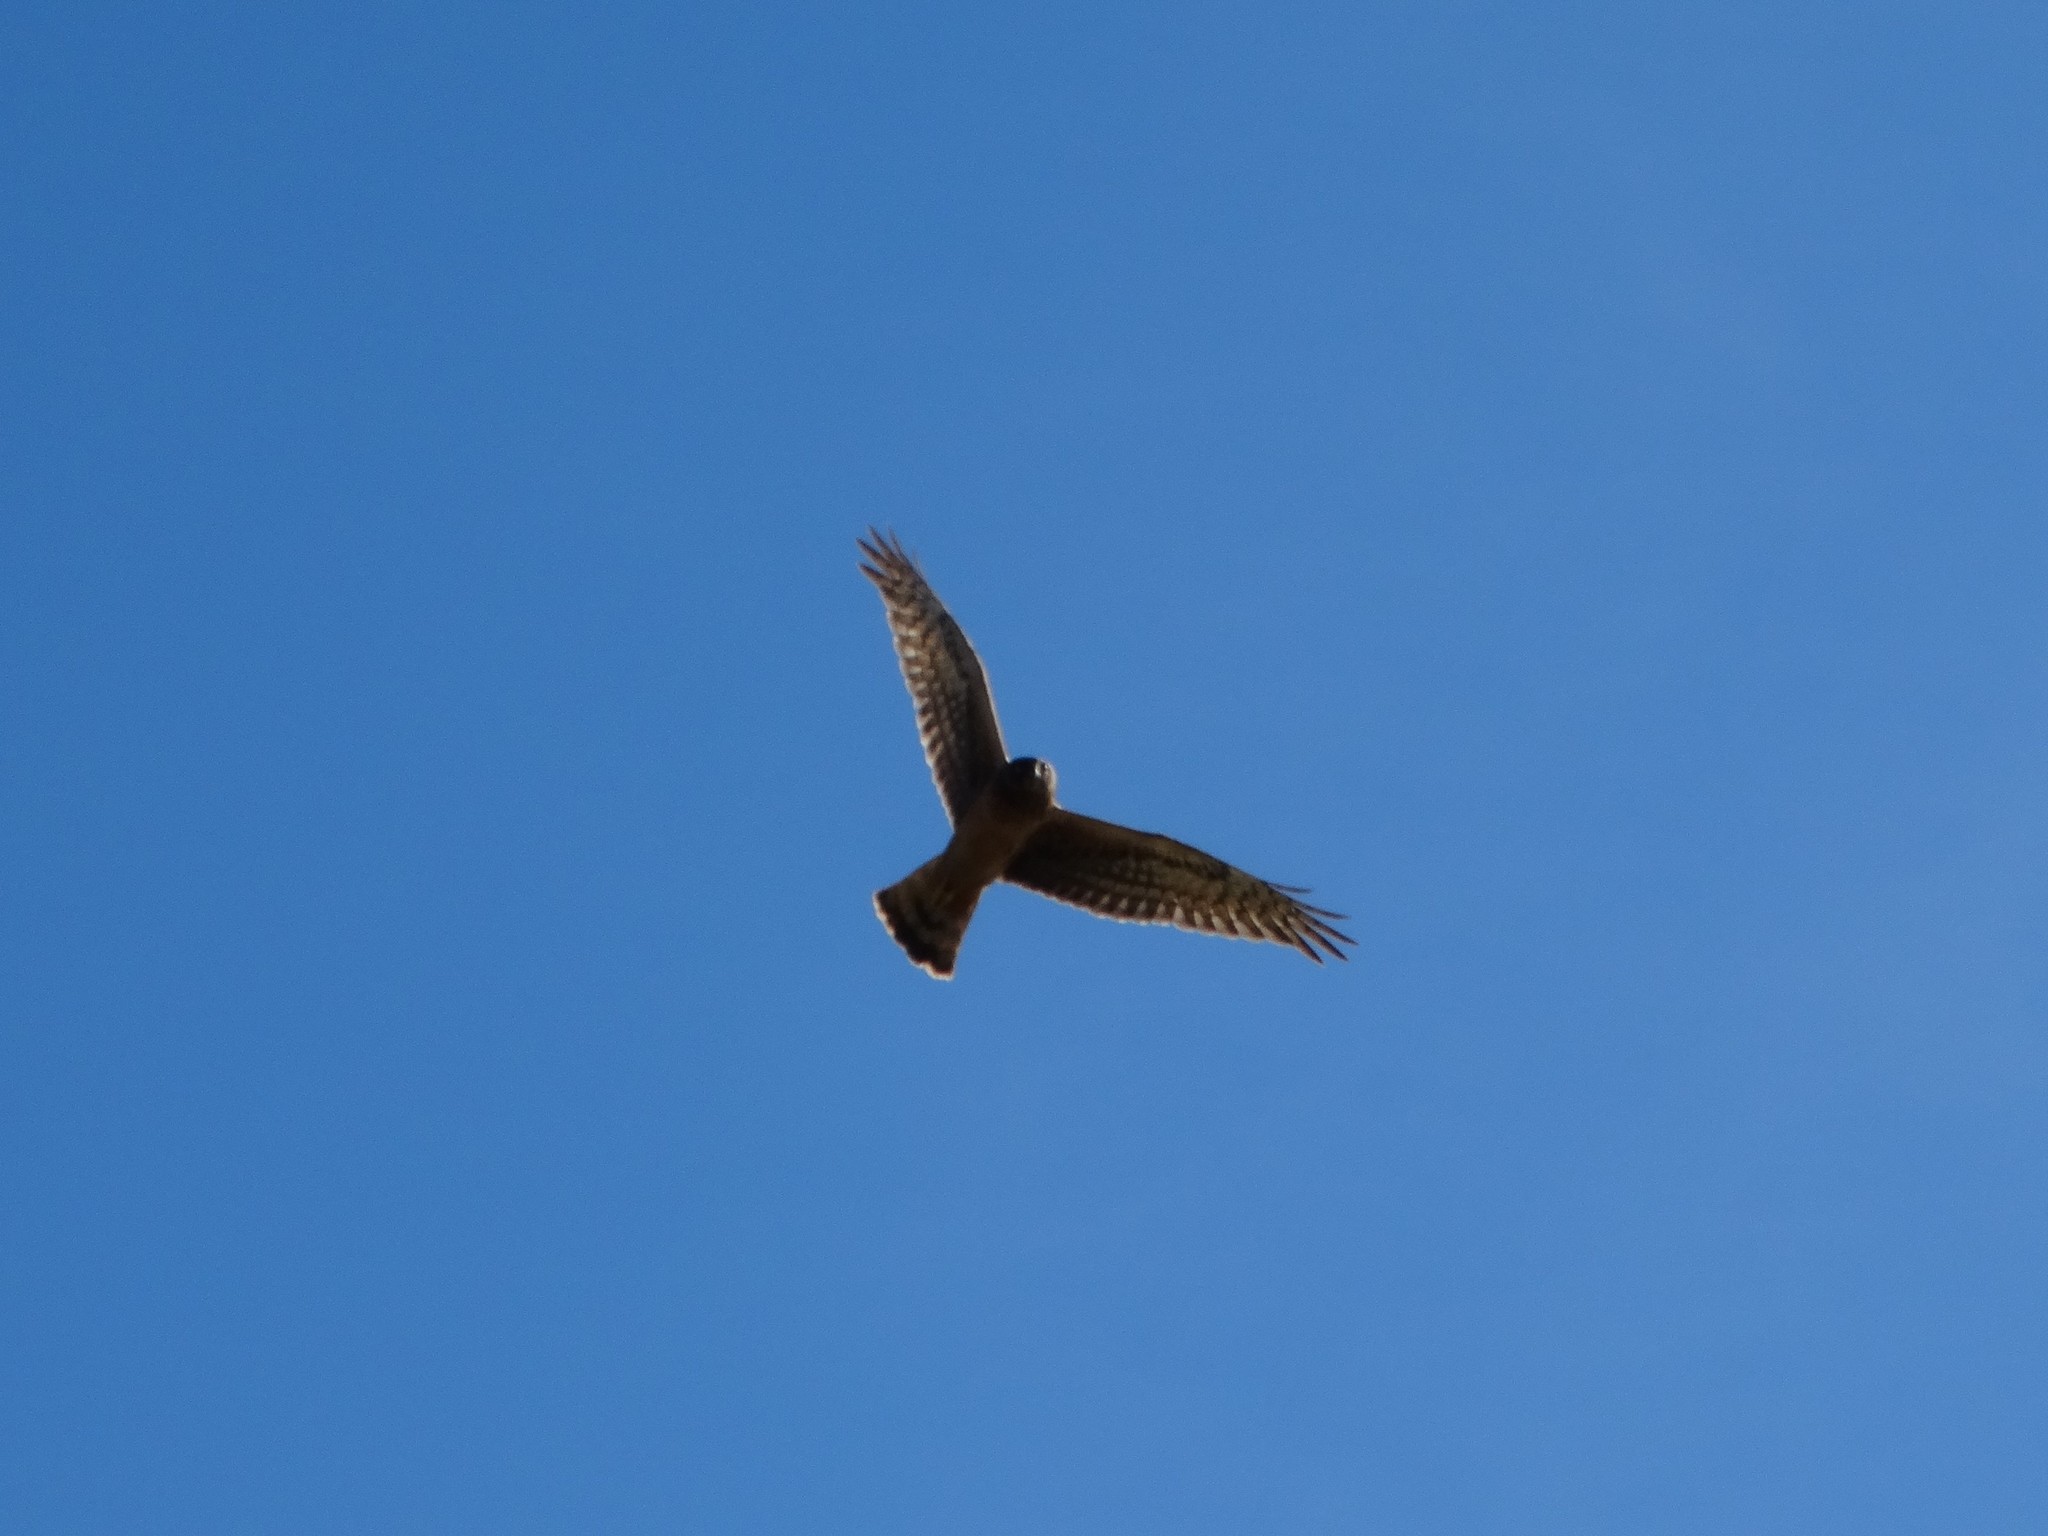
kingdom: Animalia
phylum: Chordata
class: Aves
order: Accipitriformes
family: Accipitridae
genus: Buteo
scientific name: Buteo swainsoni
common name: Swainson's hawk
